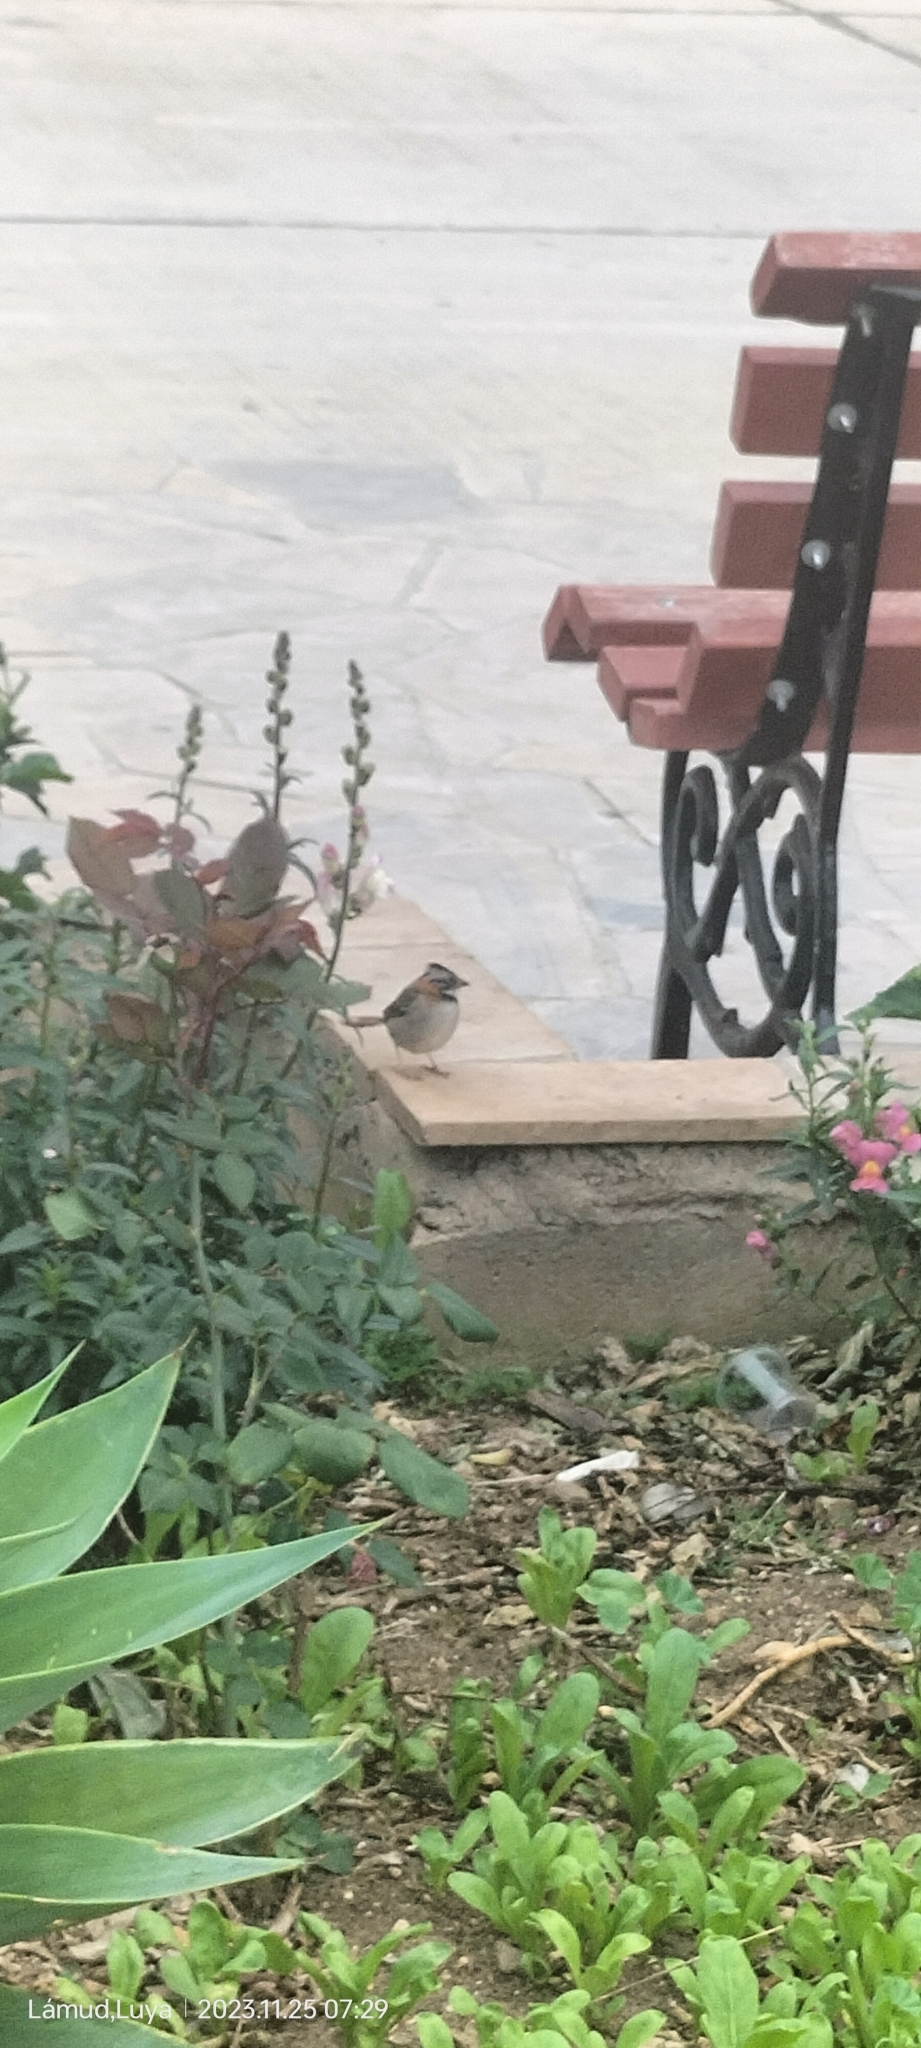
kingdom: Animalia
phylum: Chordata
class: Aves
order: Passeriformes
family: Passerellidae
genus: Zonotrichia
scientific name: Zonotrichia capensis
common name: Rufous-collared sparrow
